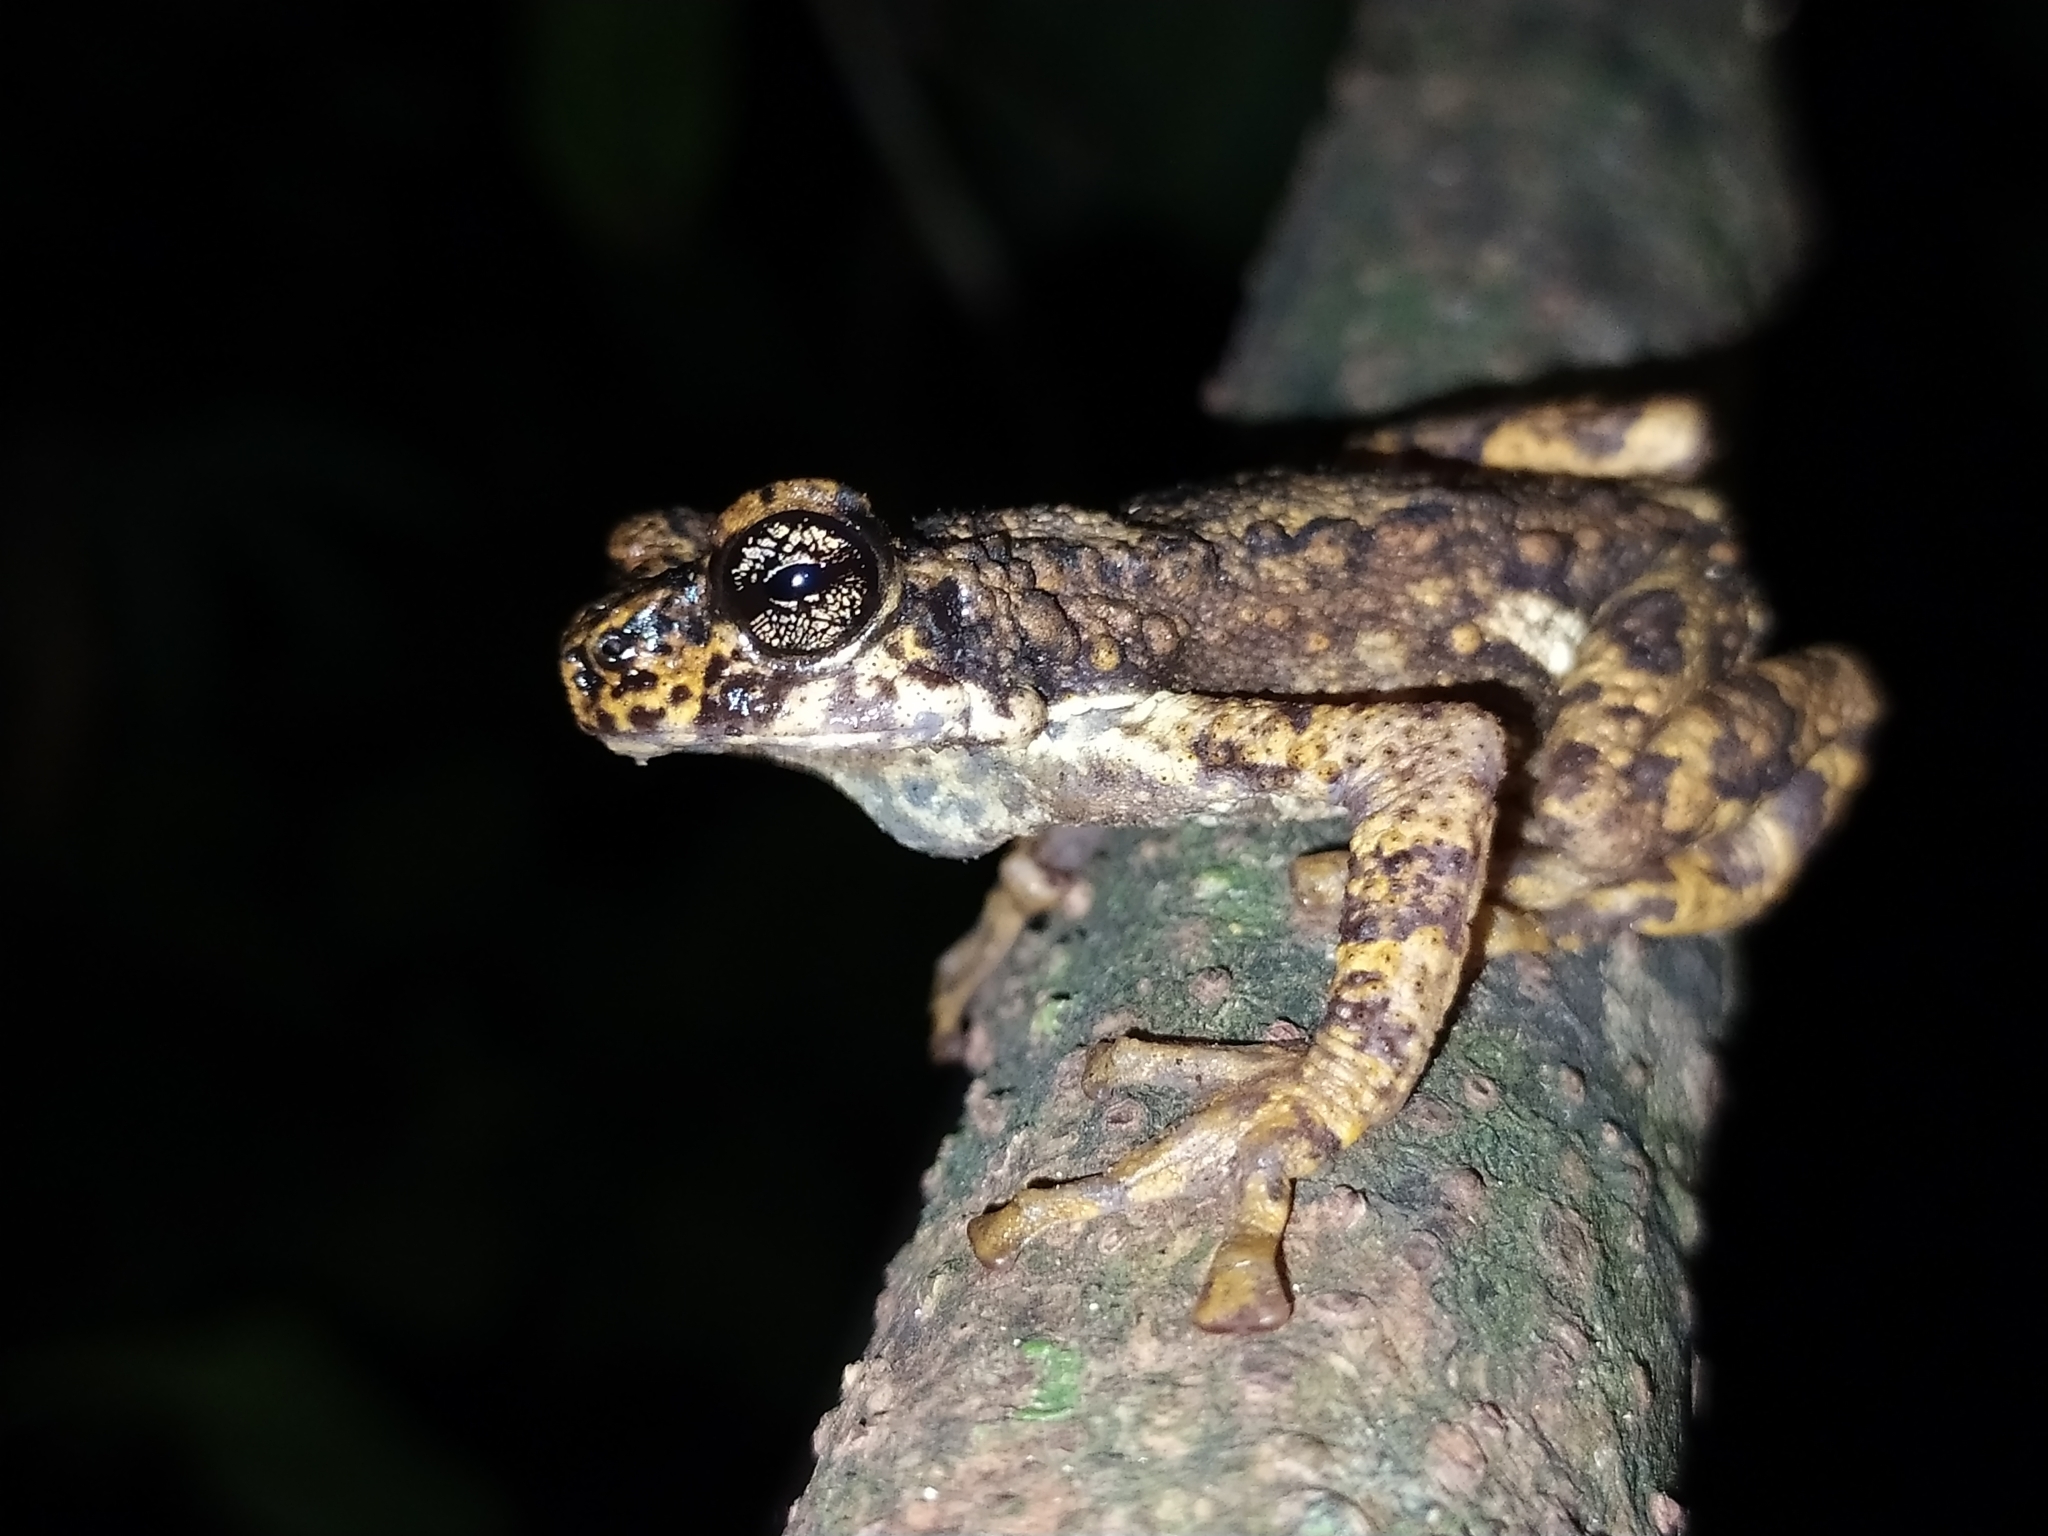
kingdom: Animalia
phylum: Chordata
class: Amphibia
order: Anura
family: Bufonidae
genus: Pedostibes
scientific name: Pedostibes tuberculosus
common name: Malabar tree toad
